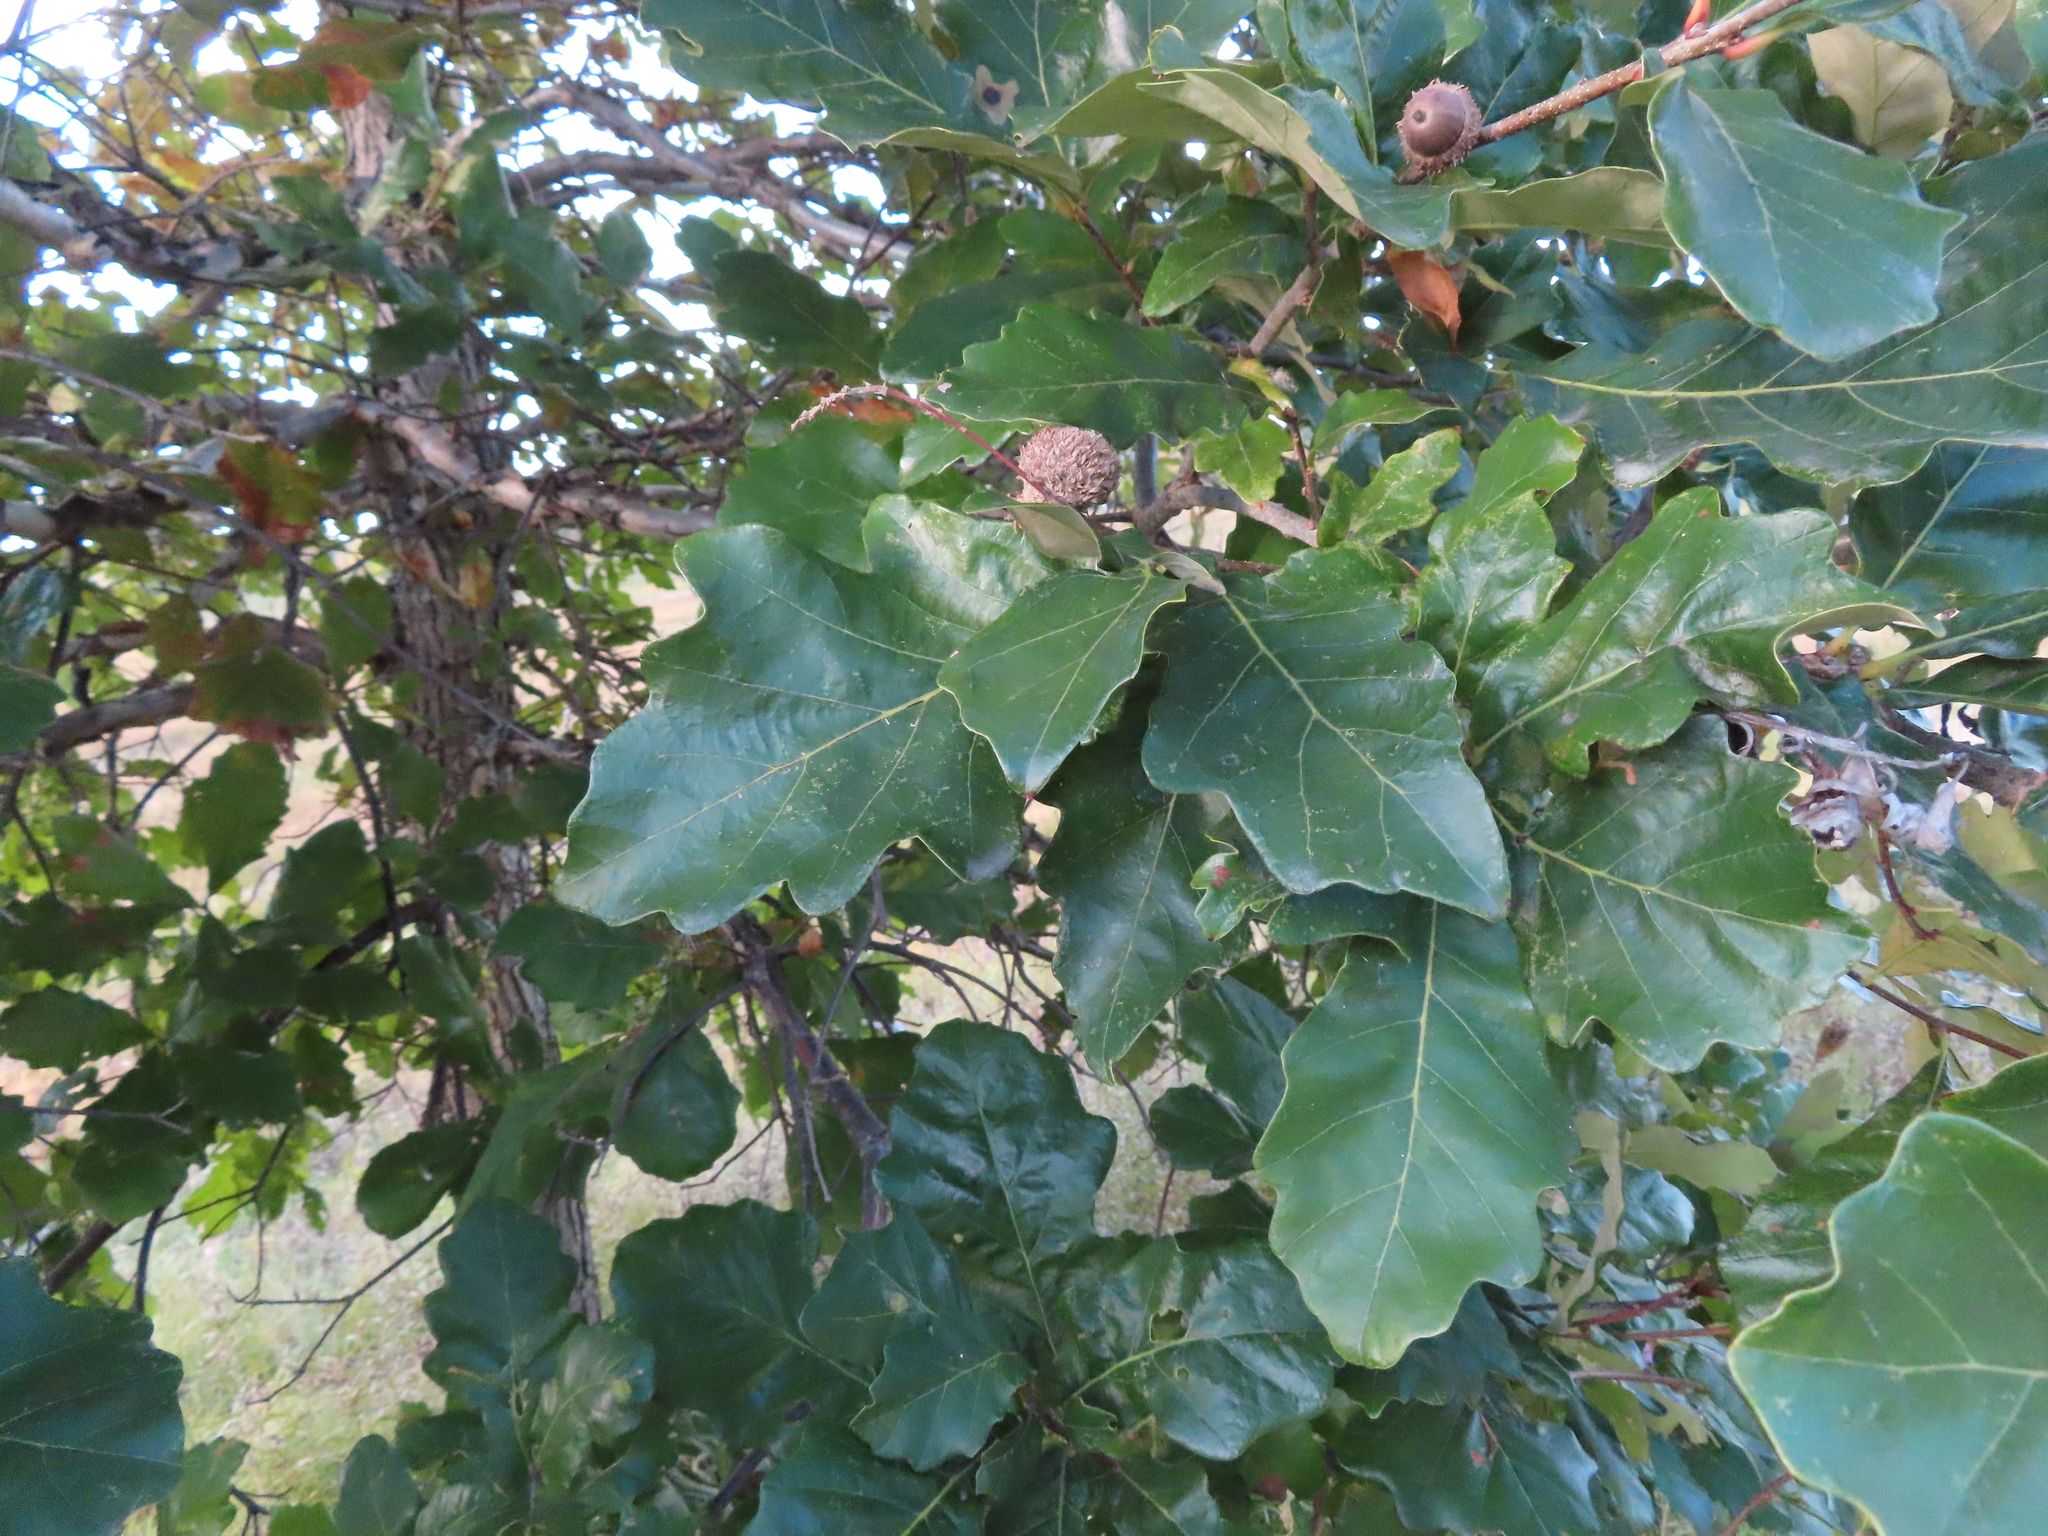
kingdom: Plantae
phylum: Tracheophyta
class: Magnoliopsida
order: Fagales
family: Fagaceae
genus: Quercus
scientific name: Quercus macrocarpa
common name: Bur oak
